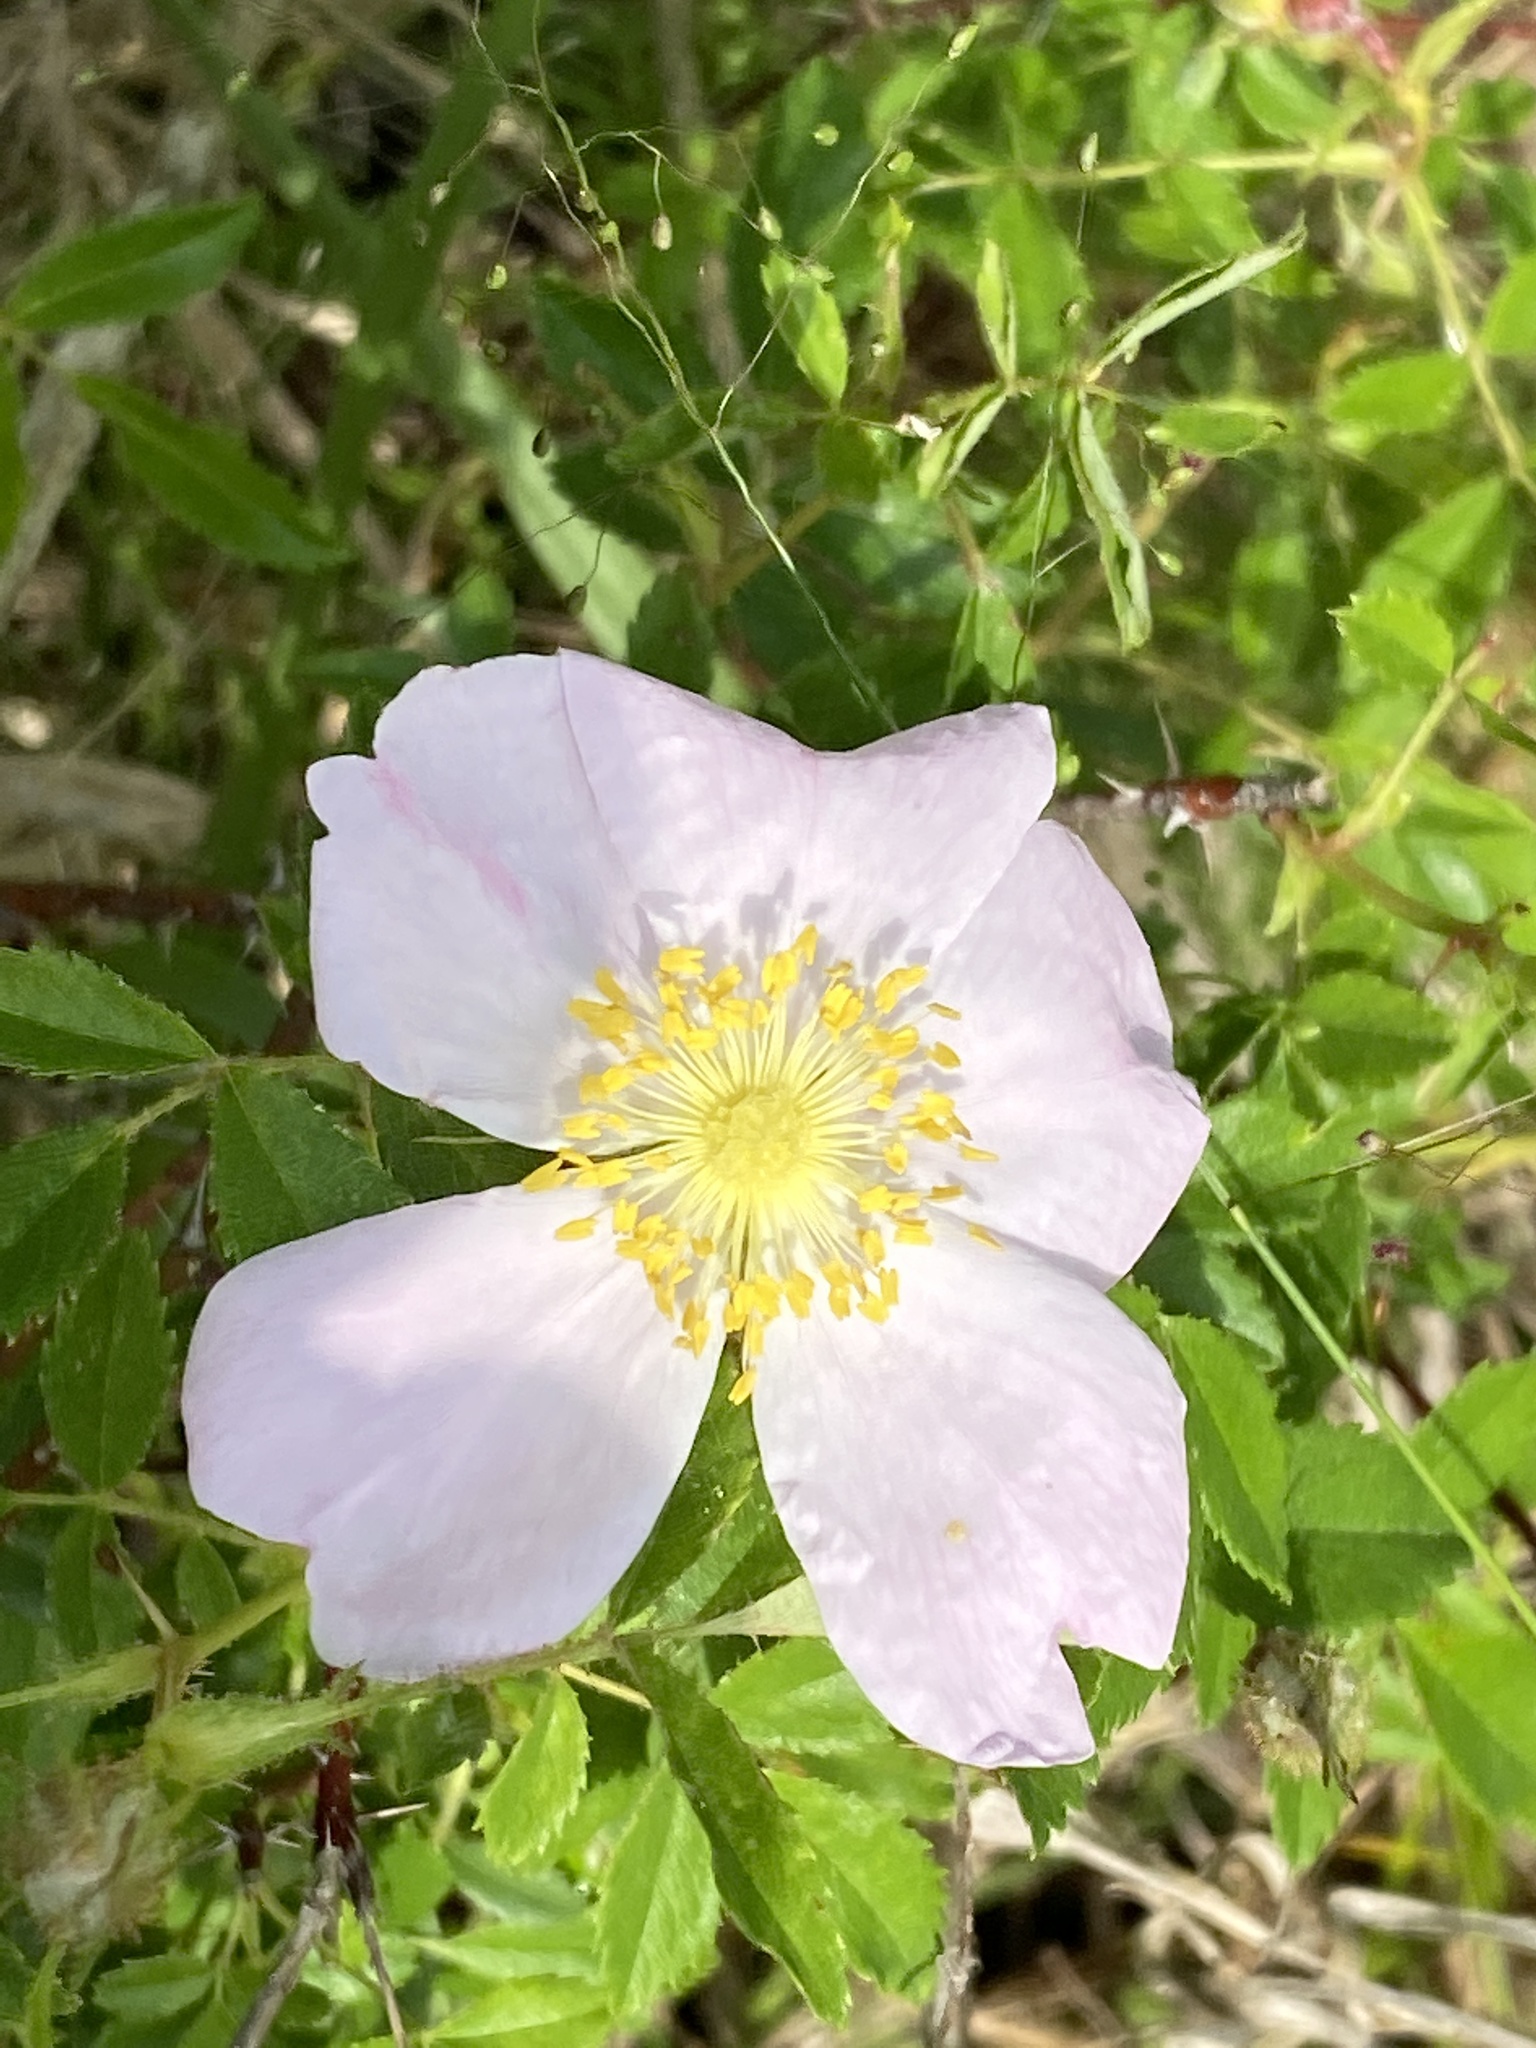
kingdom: Plantae
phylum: Tracheophyta
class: Magnoliopsida
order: Rosales
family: Rosaceae
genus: Rosa
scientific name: Rosa carolina
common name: Pasture rose
